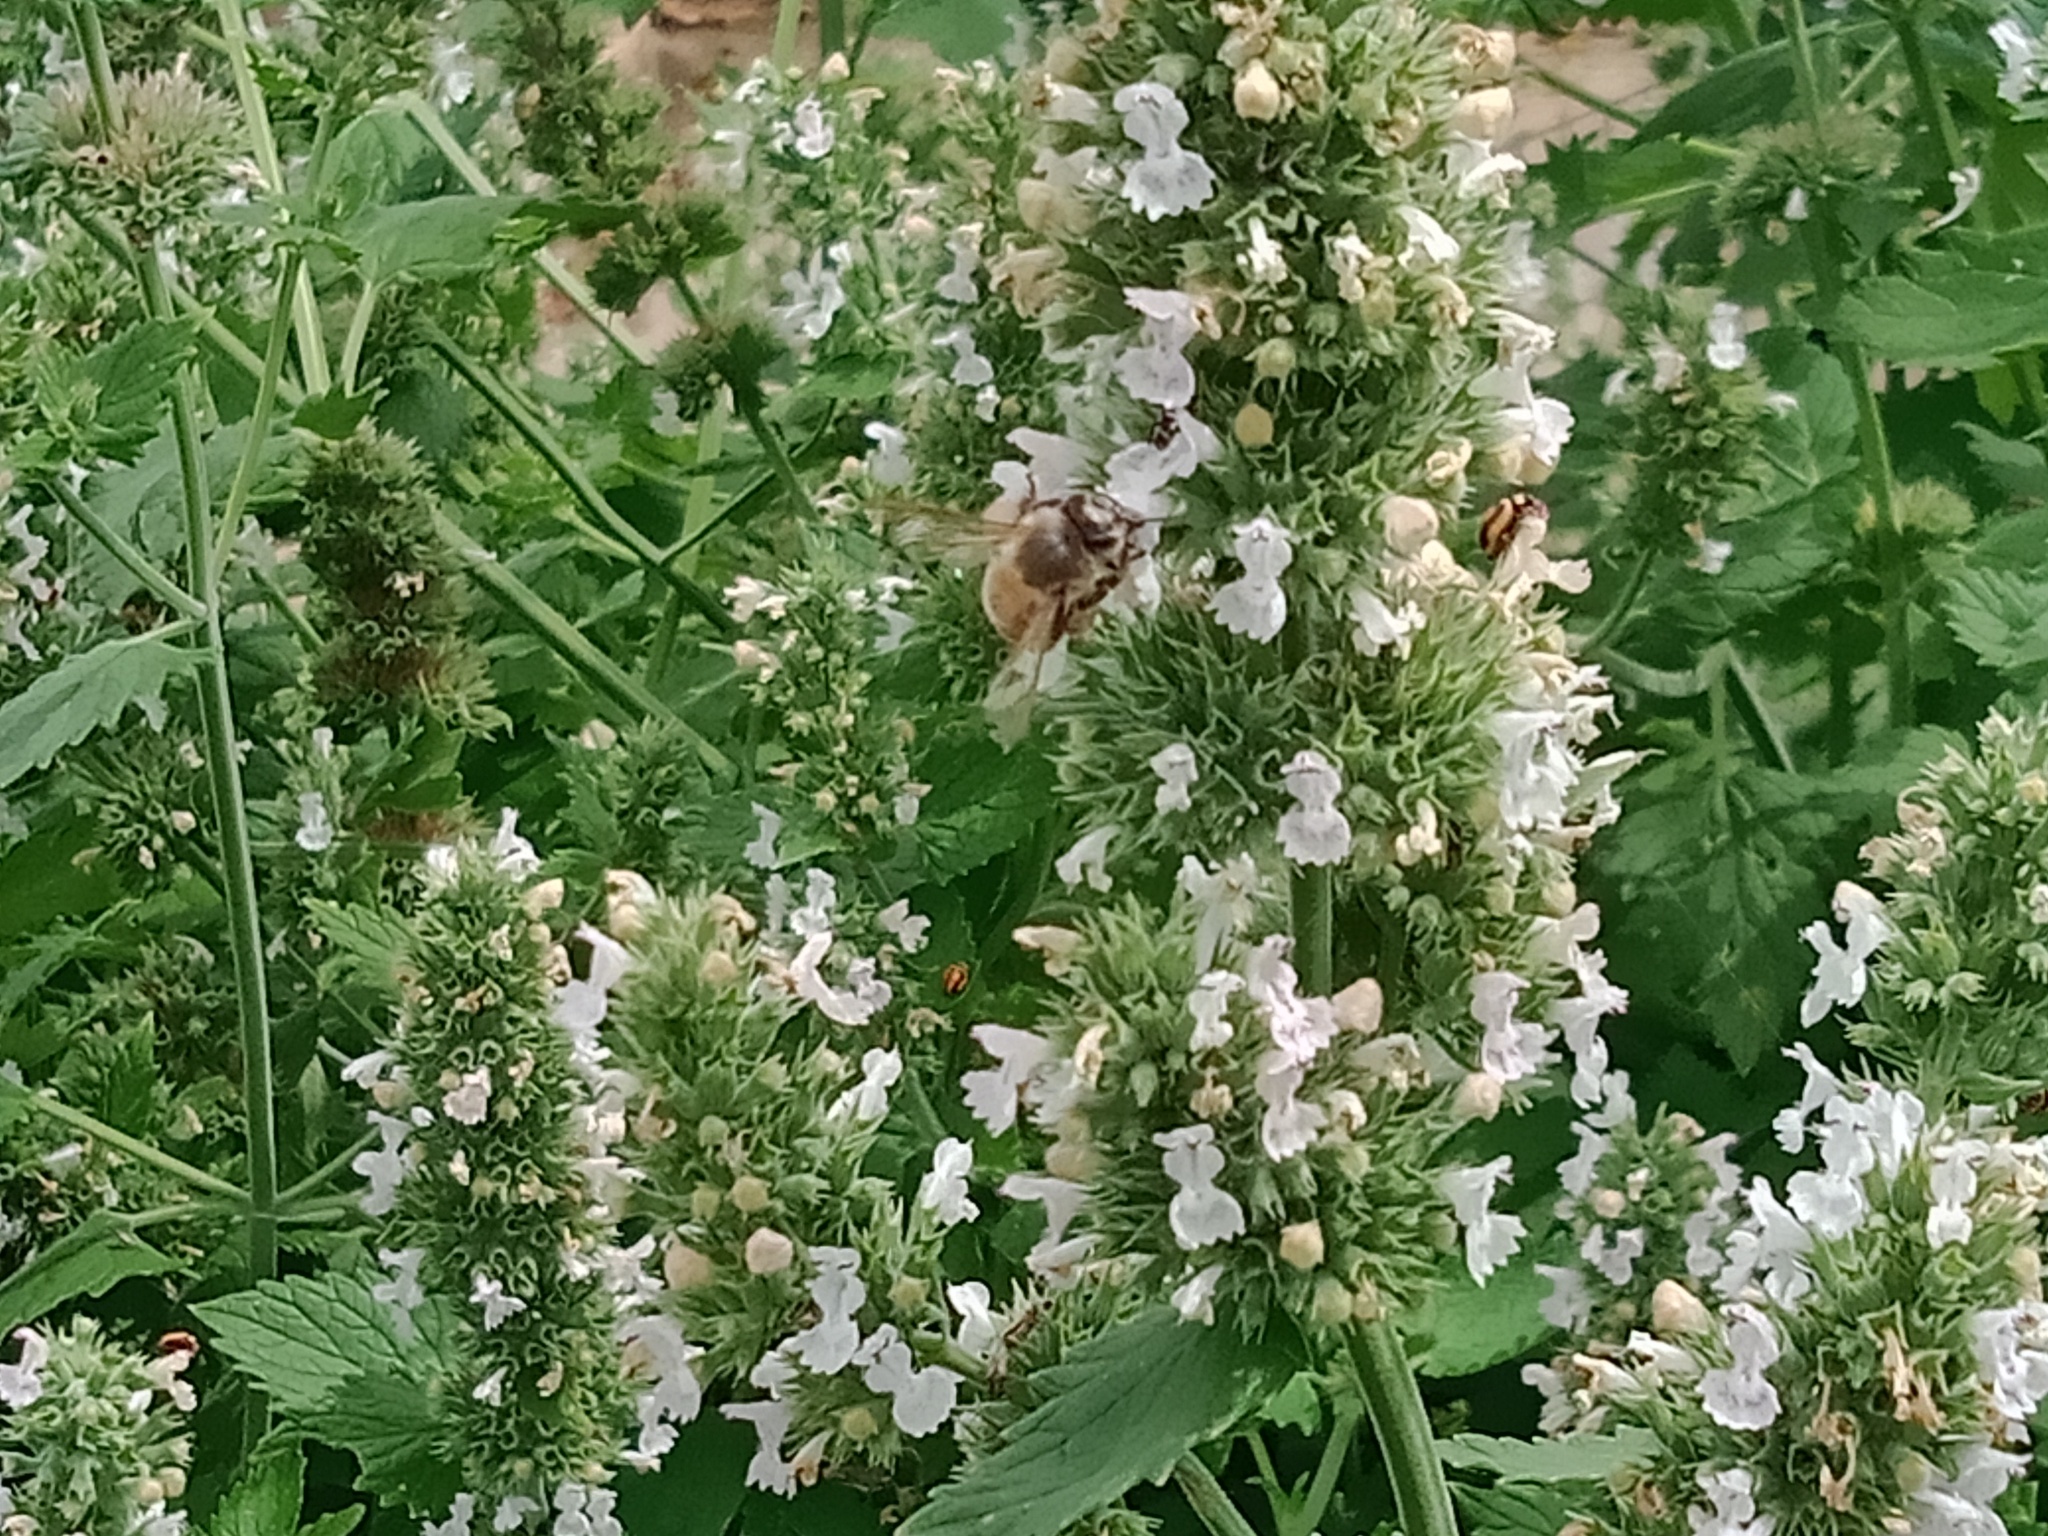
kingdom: Animalia
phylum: Arthropoda
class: Insecta
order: Coleoptera
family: Coccinellidae
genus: Micraspis
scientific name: Micraspis frenata
